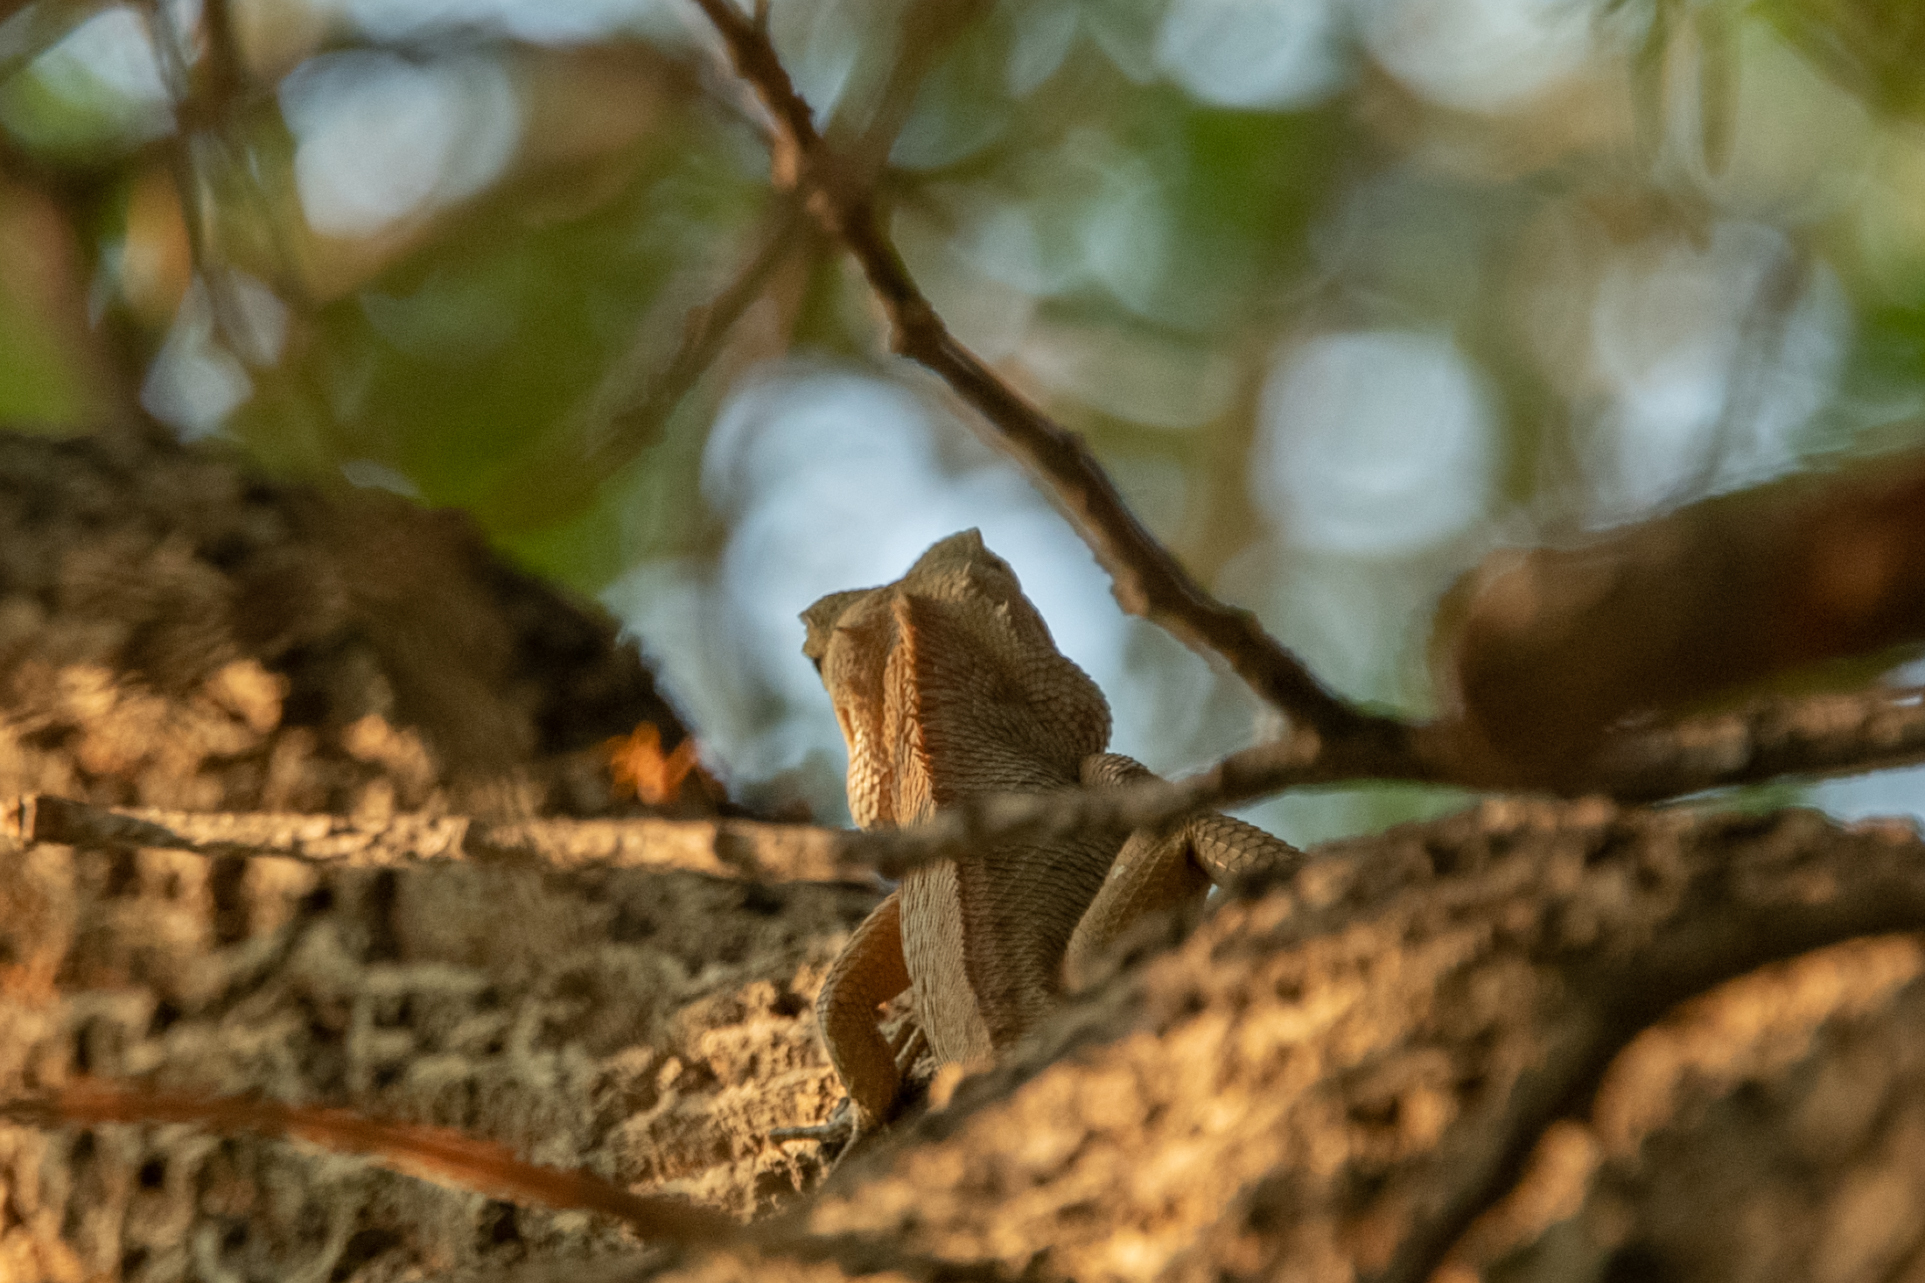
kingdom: Animalia
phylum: Chordata
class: Squamata
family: Agamidae
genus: Calotes
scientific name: Calotes versicolor
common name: Oriental garden lizard
